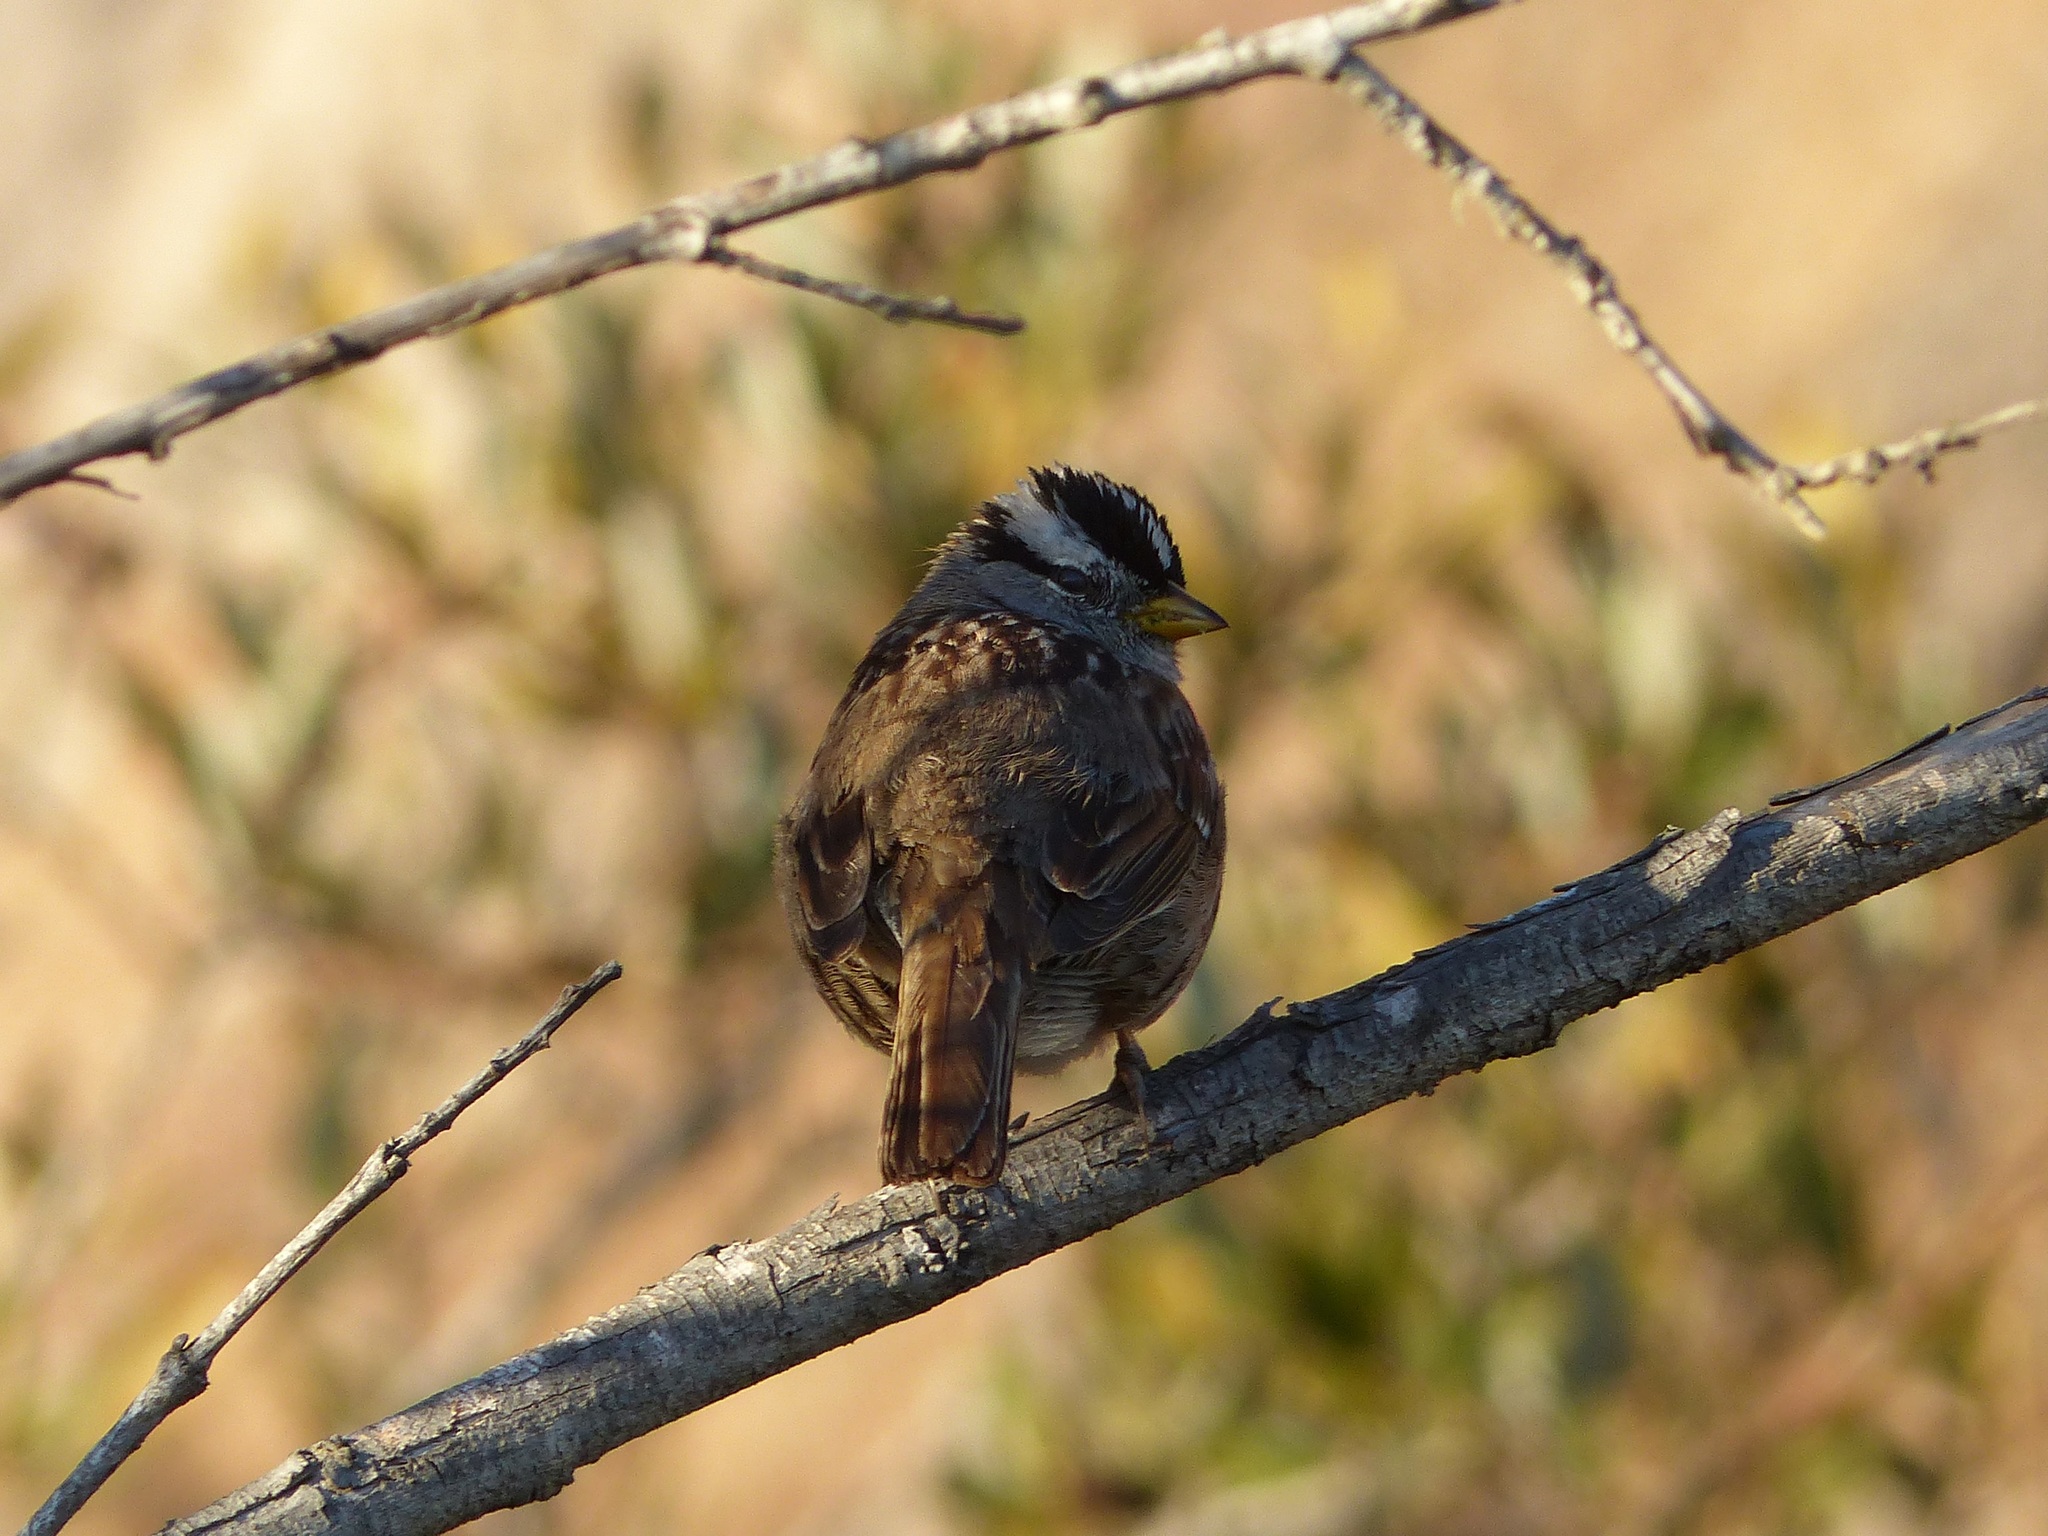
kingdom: Animalia
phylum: Chordata
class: Aves
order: Passeriformes
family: Passerellidae
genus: Zonotrichia
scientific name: Zonotrichia leucophrys
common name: White-crowned sparrow
